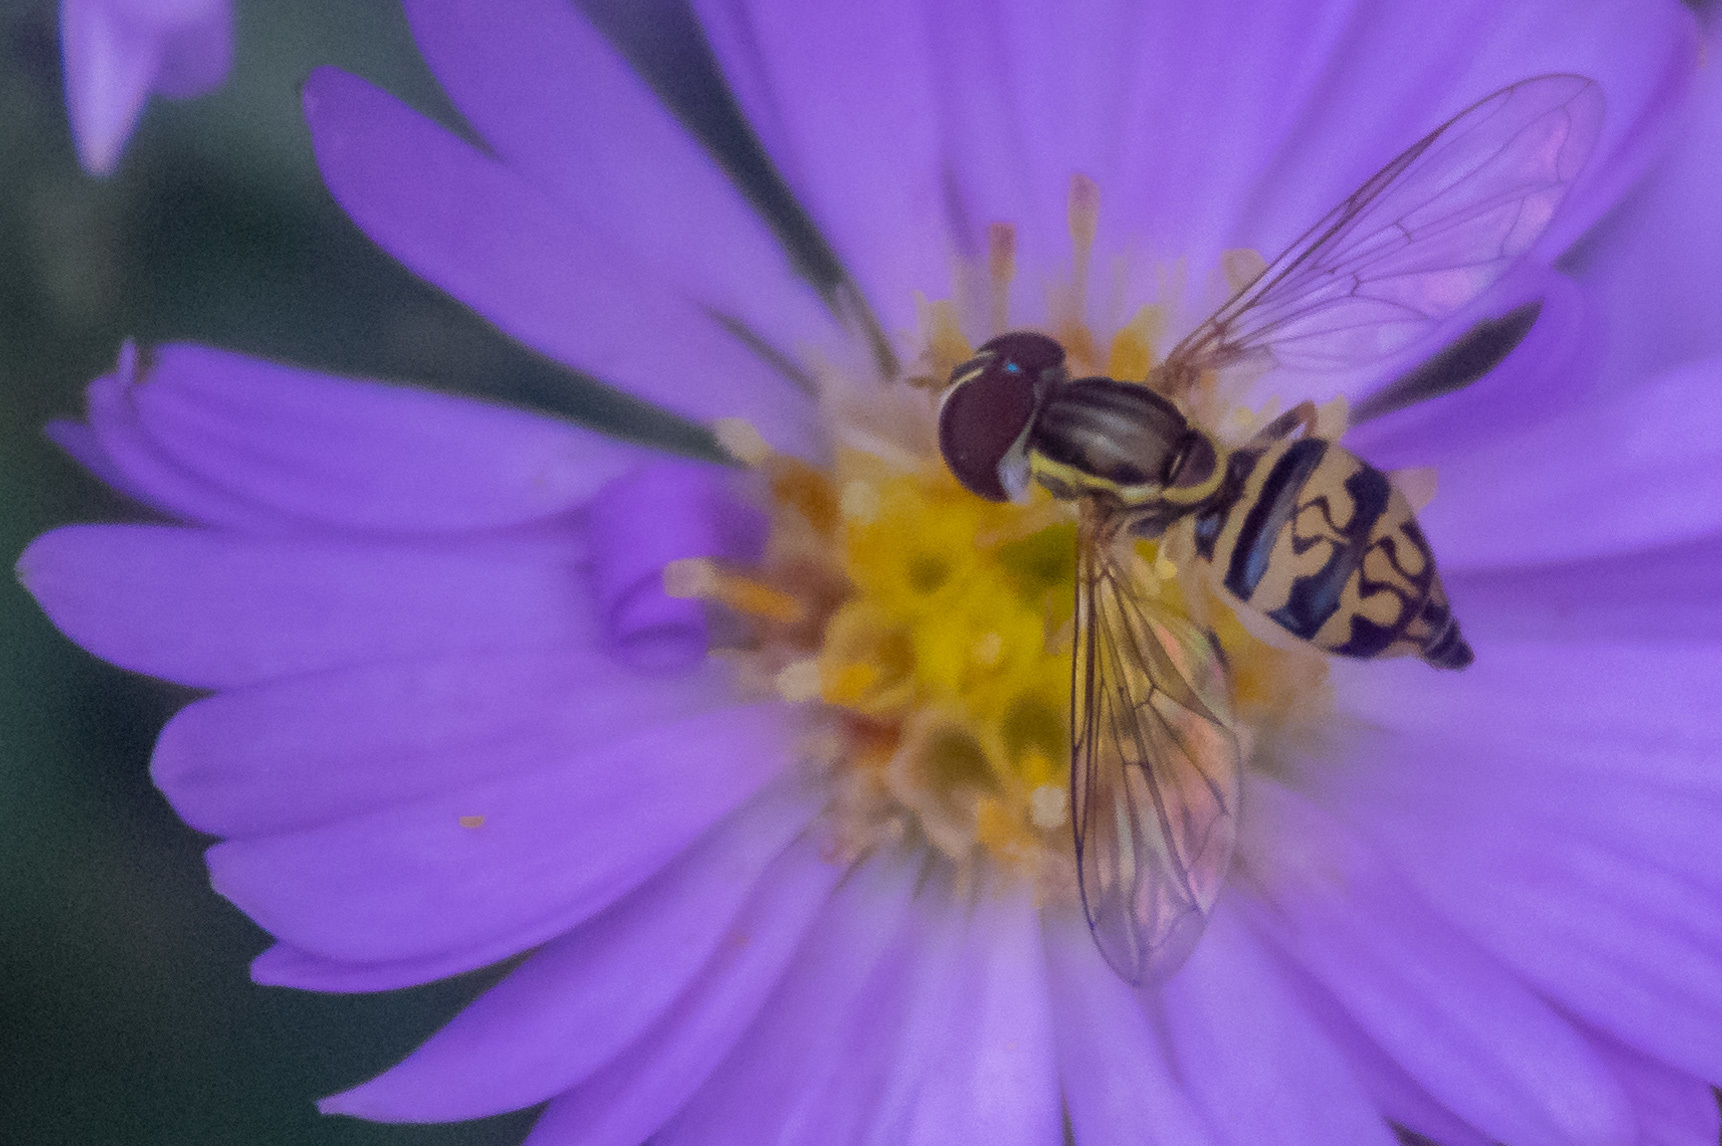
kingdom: Animalia
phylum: Arthropoda
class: Insecta
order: Diptera
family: Syrphidae
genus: Toxomerus
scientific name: Toxomerus geminatus
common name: Eastern calligrapher
